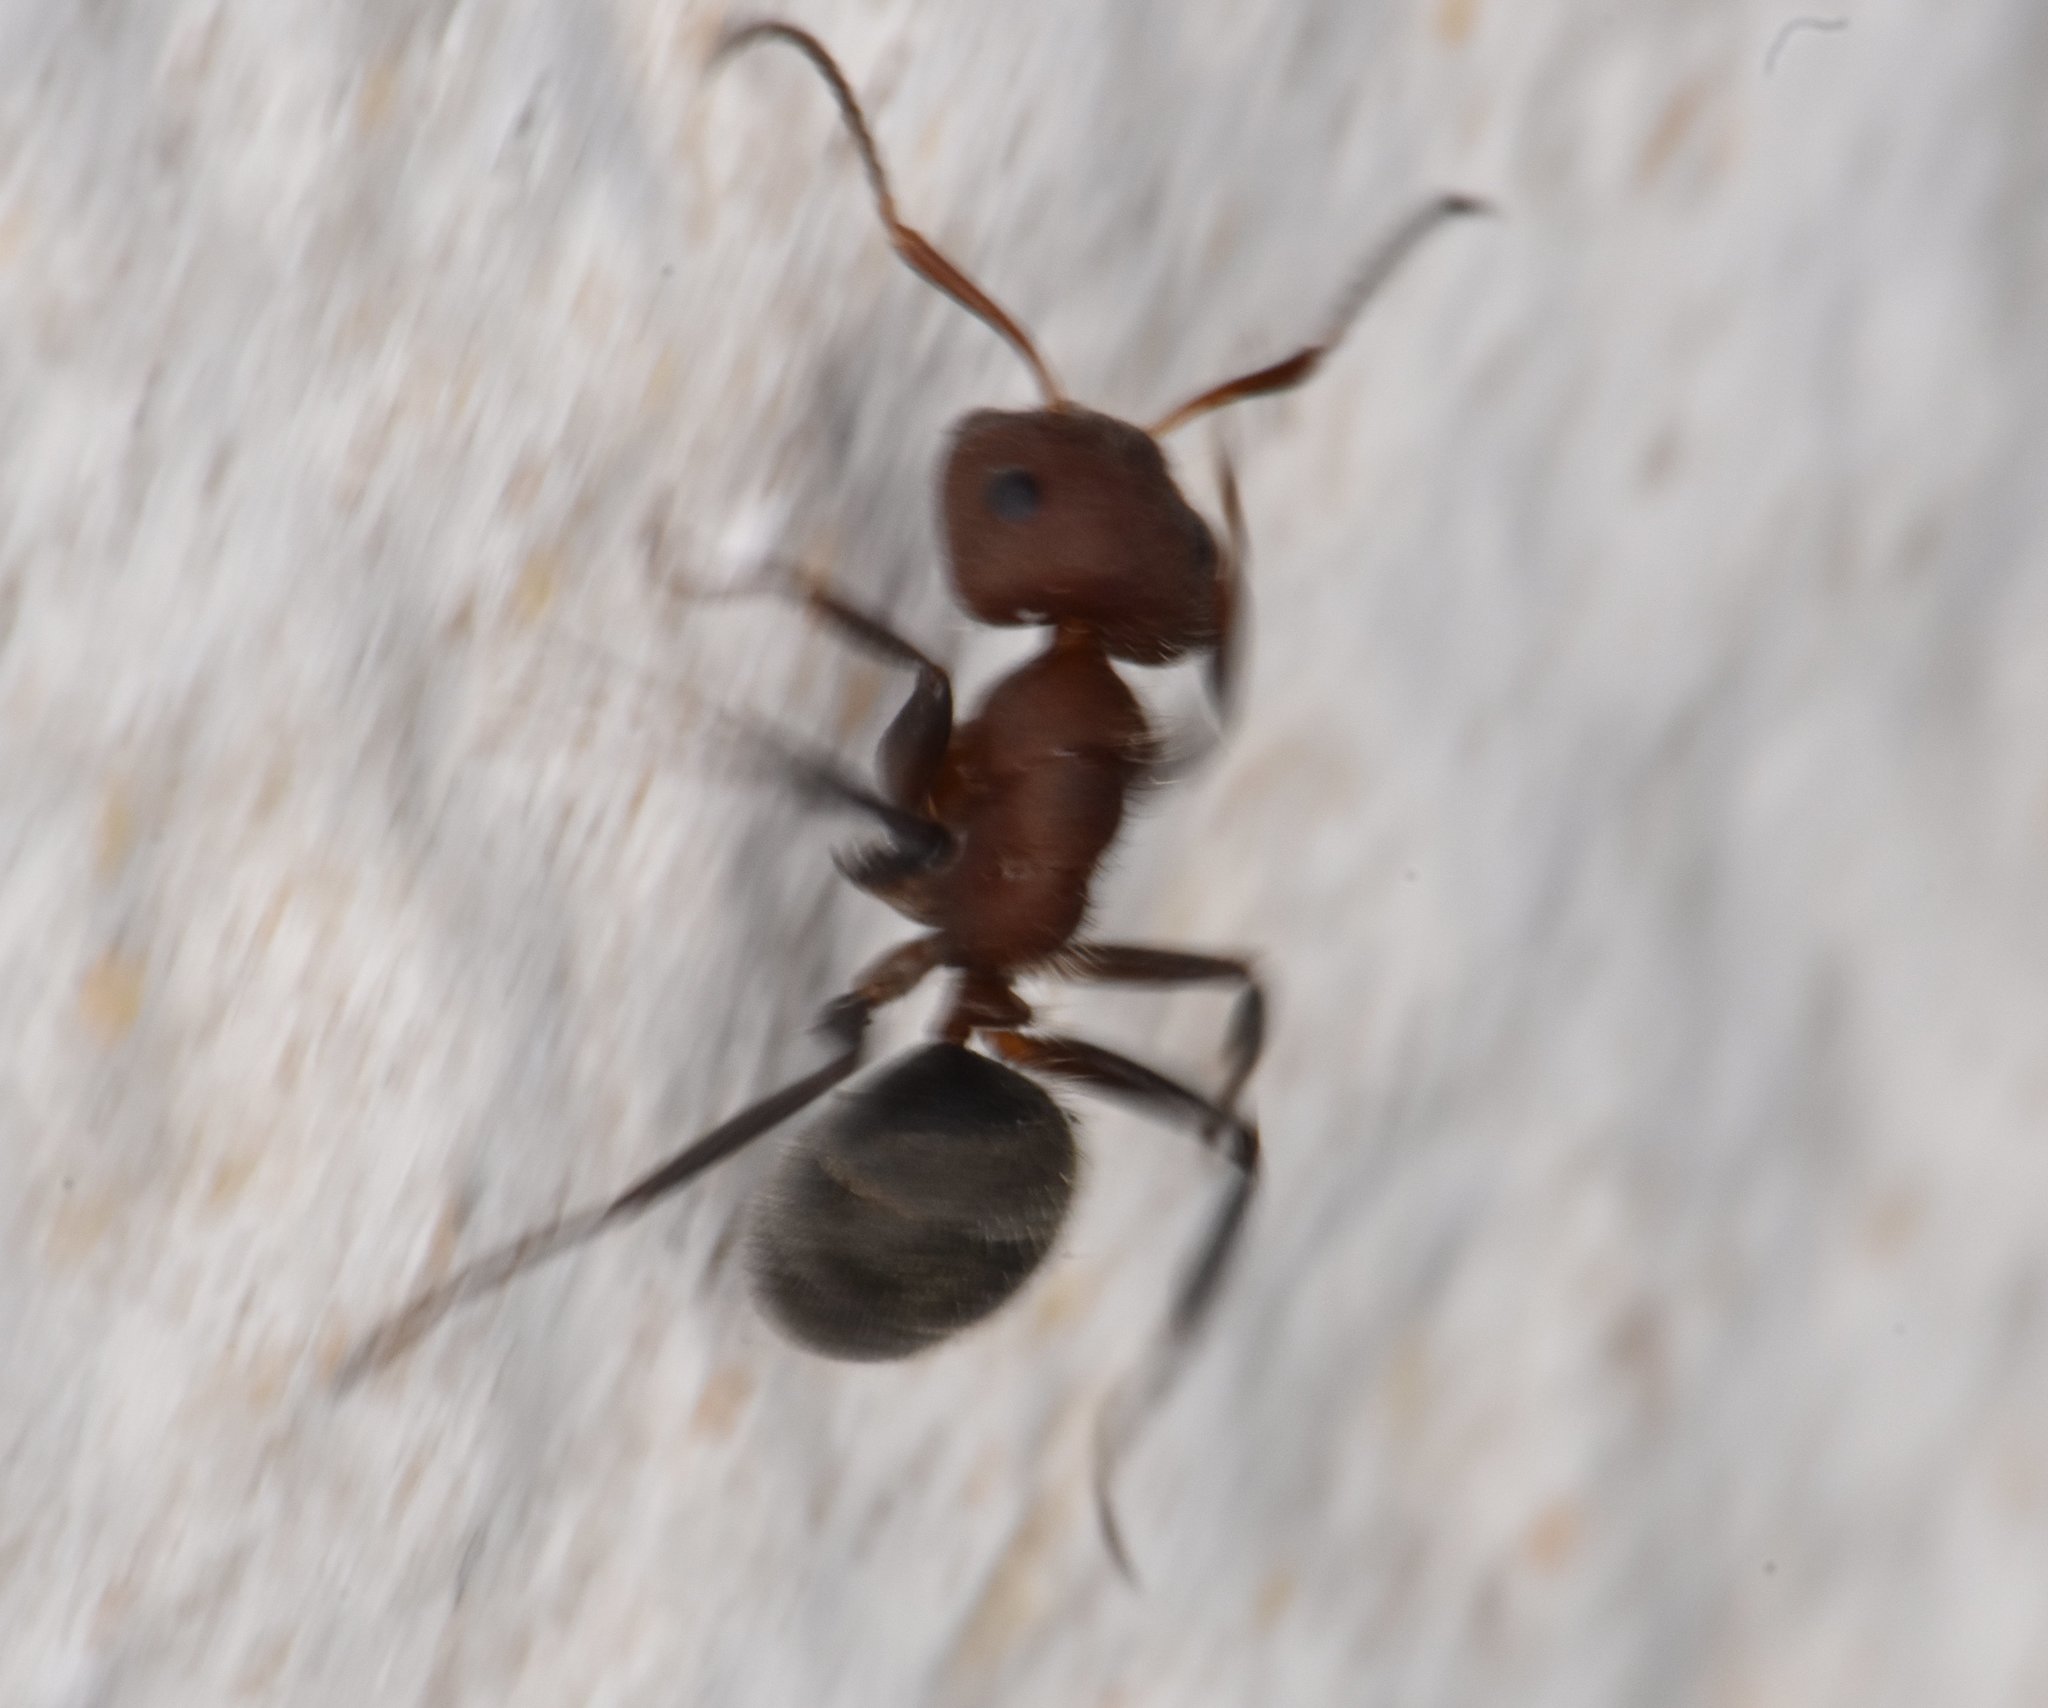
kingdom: Animalia
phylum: Arthropoda
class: Insecta
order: Hymenoptera
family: Formicidae
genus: Camponotus
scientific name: Camponotus planatus
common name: Compact carpenter ant
